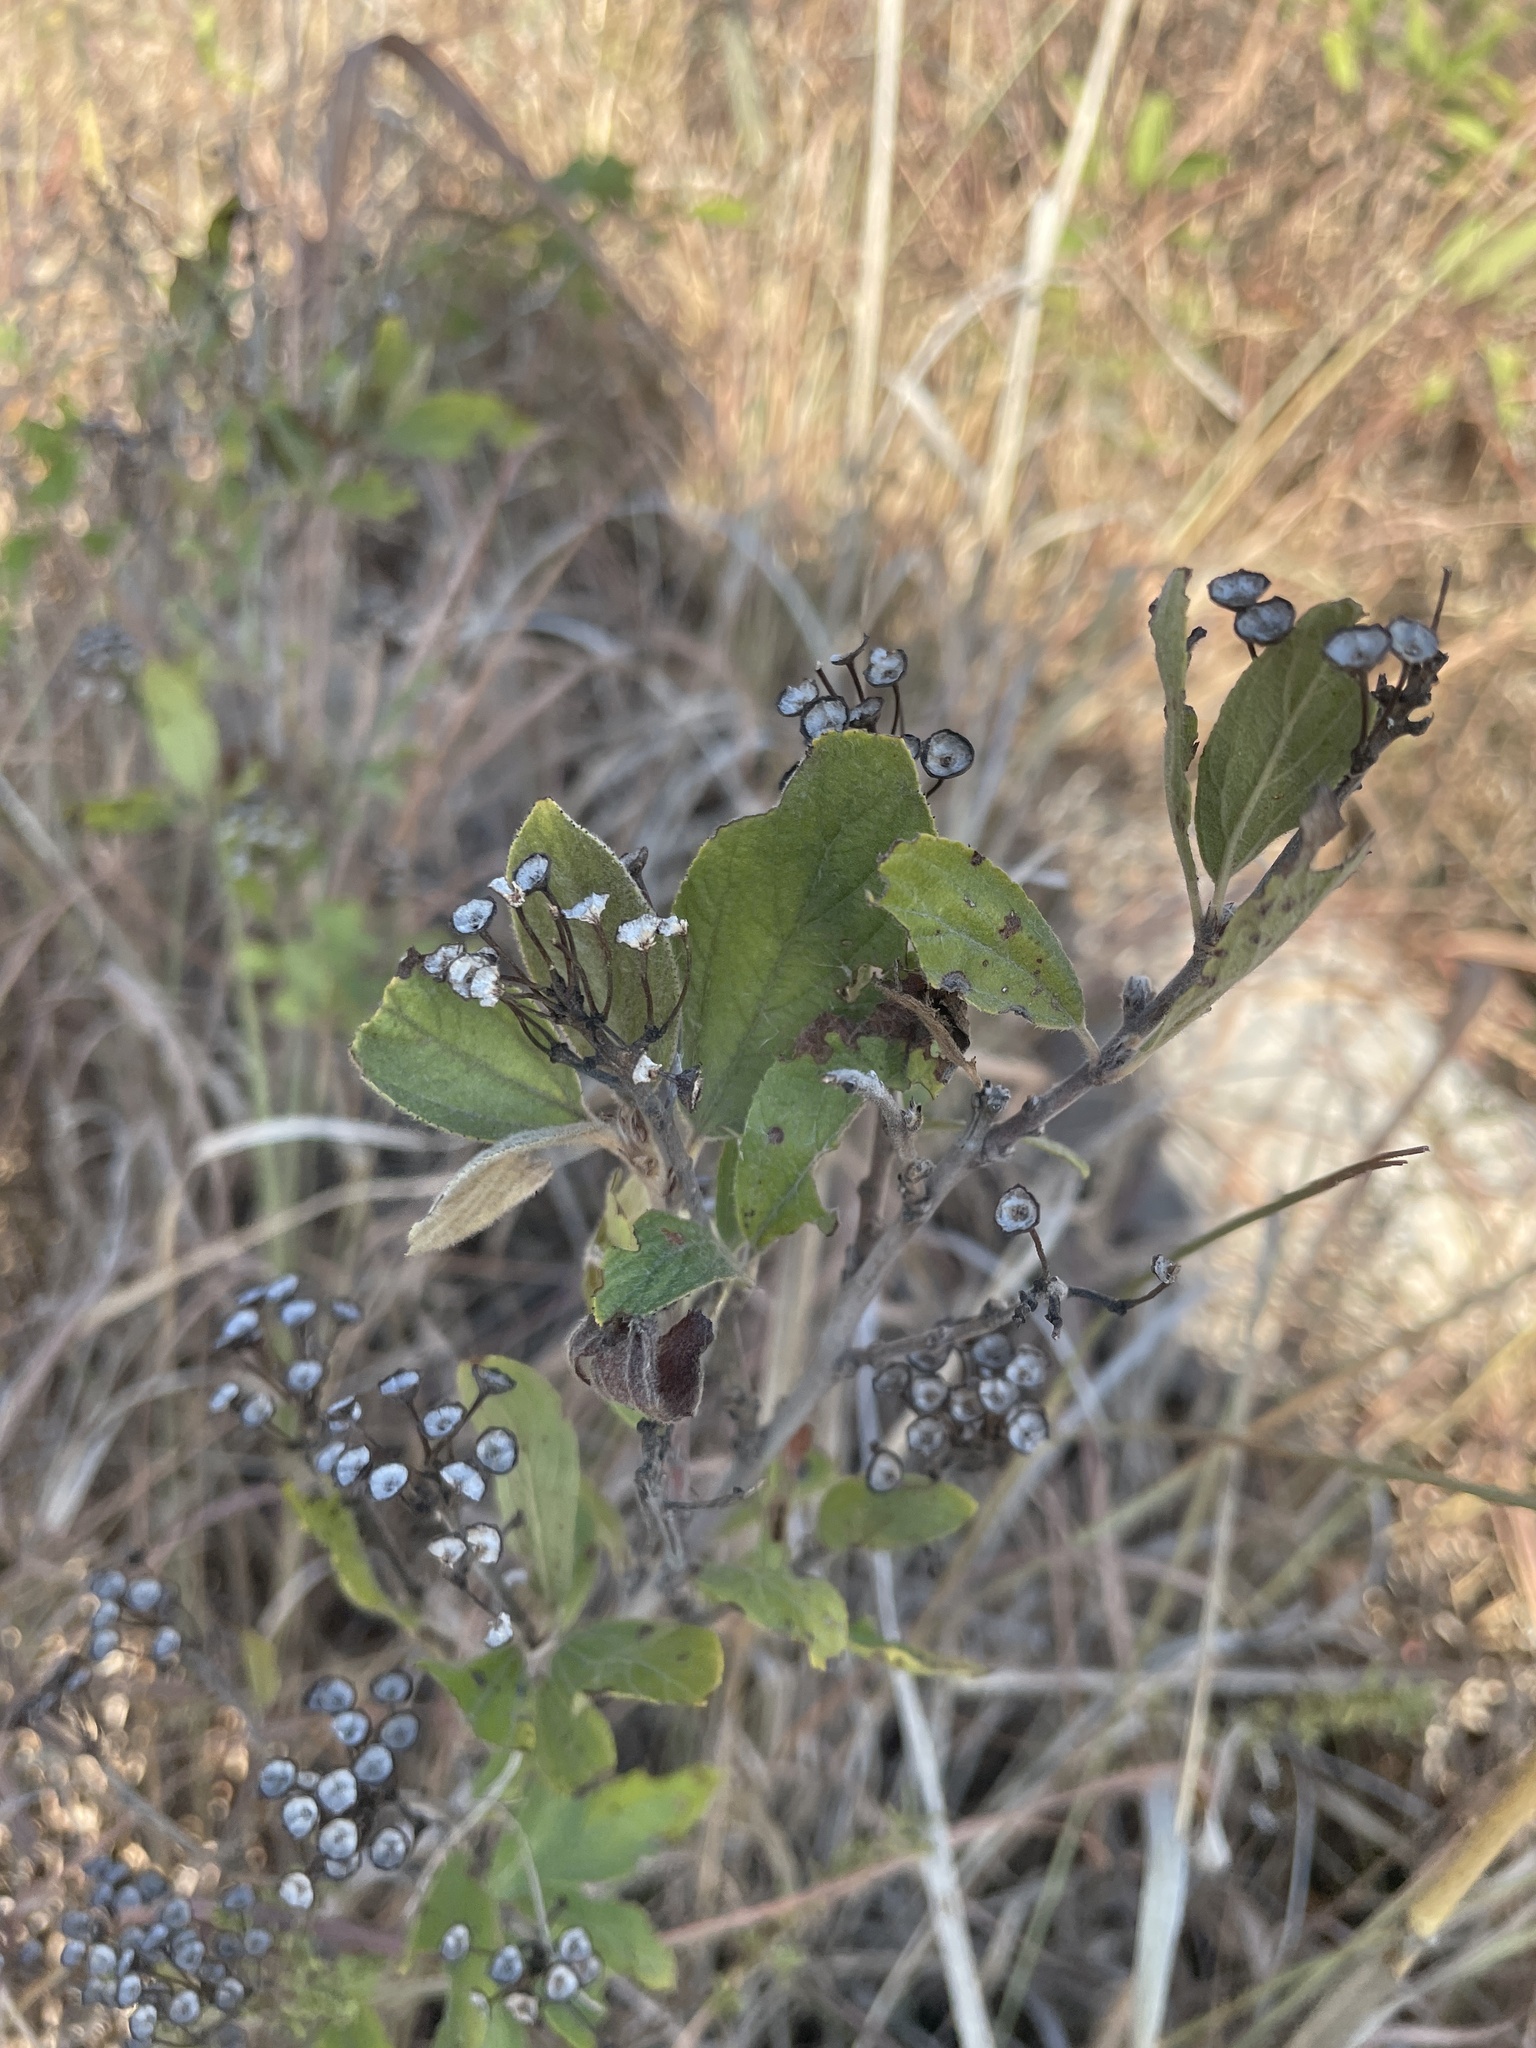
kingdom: Plantae
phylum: Tracheophyta
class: Magnoliopsida
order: Rosales
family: Rhamnaceae
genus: Ceanothus
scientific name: Ceanothus herbaceus
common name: Inland ceanothus
